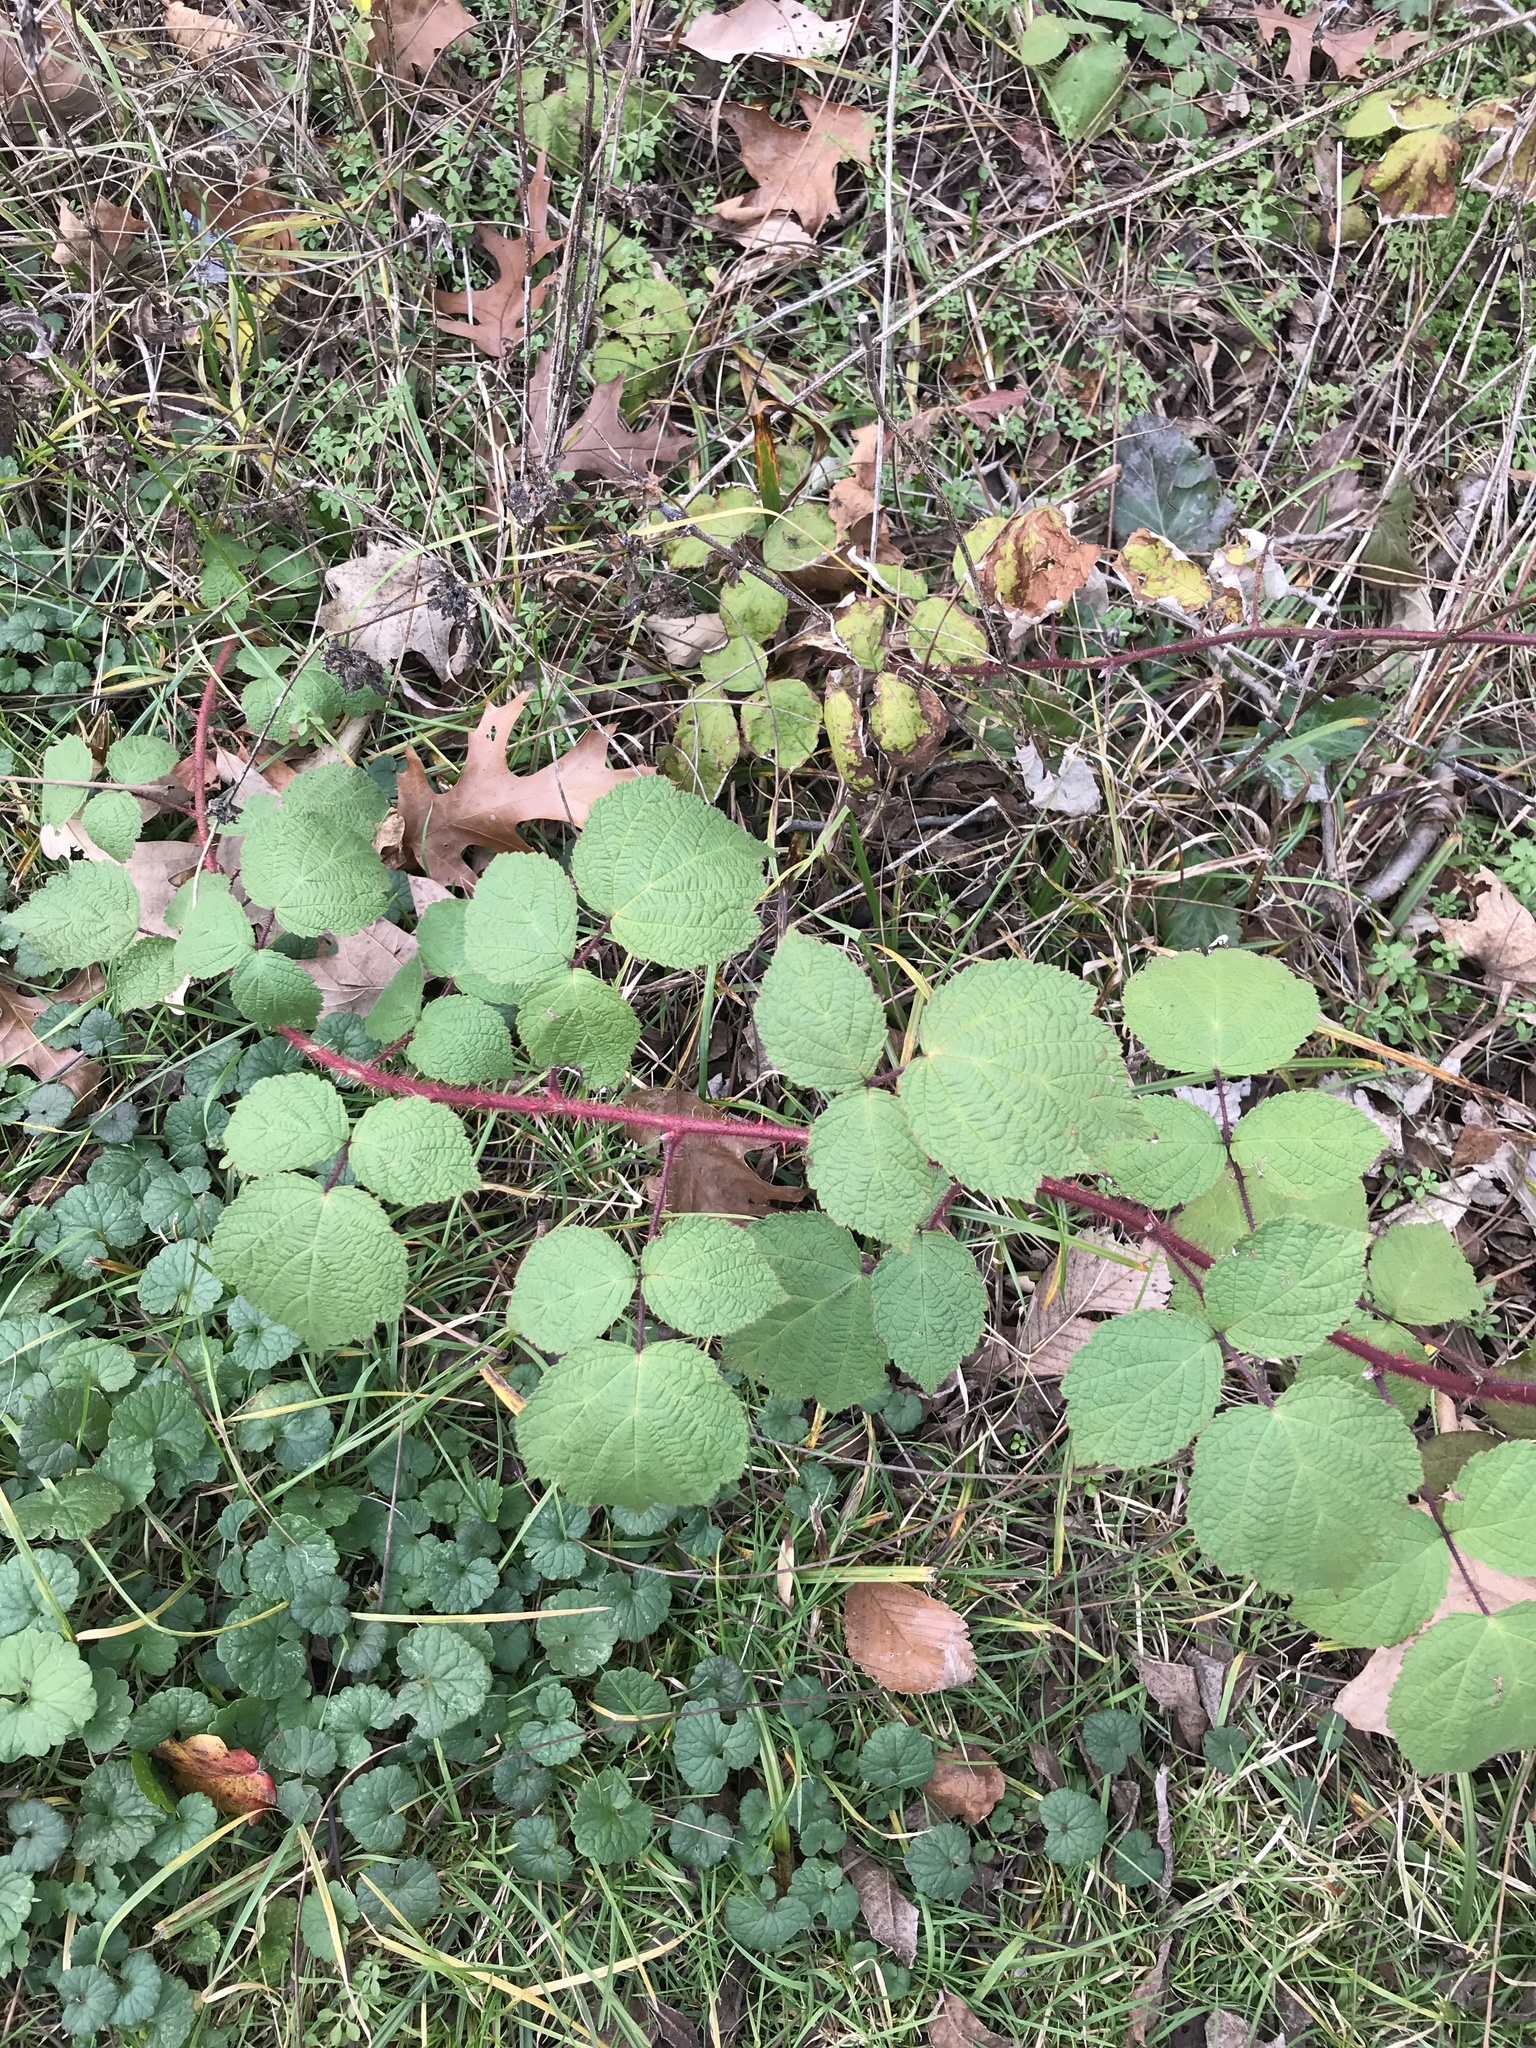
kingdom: Plantae
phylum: Tracheophyta
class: Magnoliopsida
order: Rosales
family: Rosaceae
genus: Rubus
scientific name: Rubus phoenicolasius
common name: Japanese wineberry
